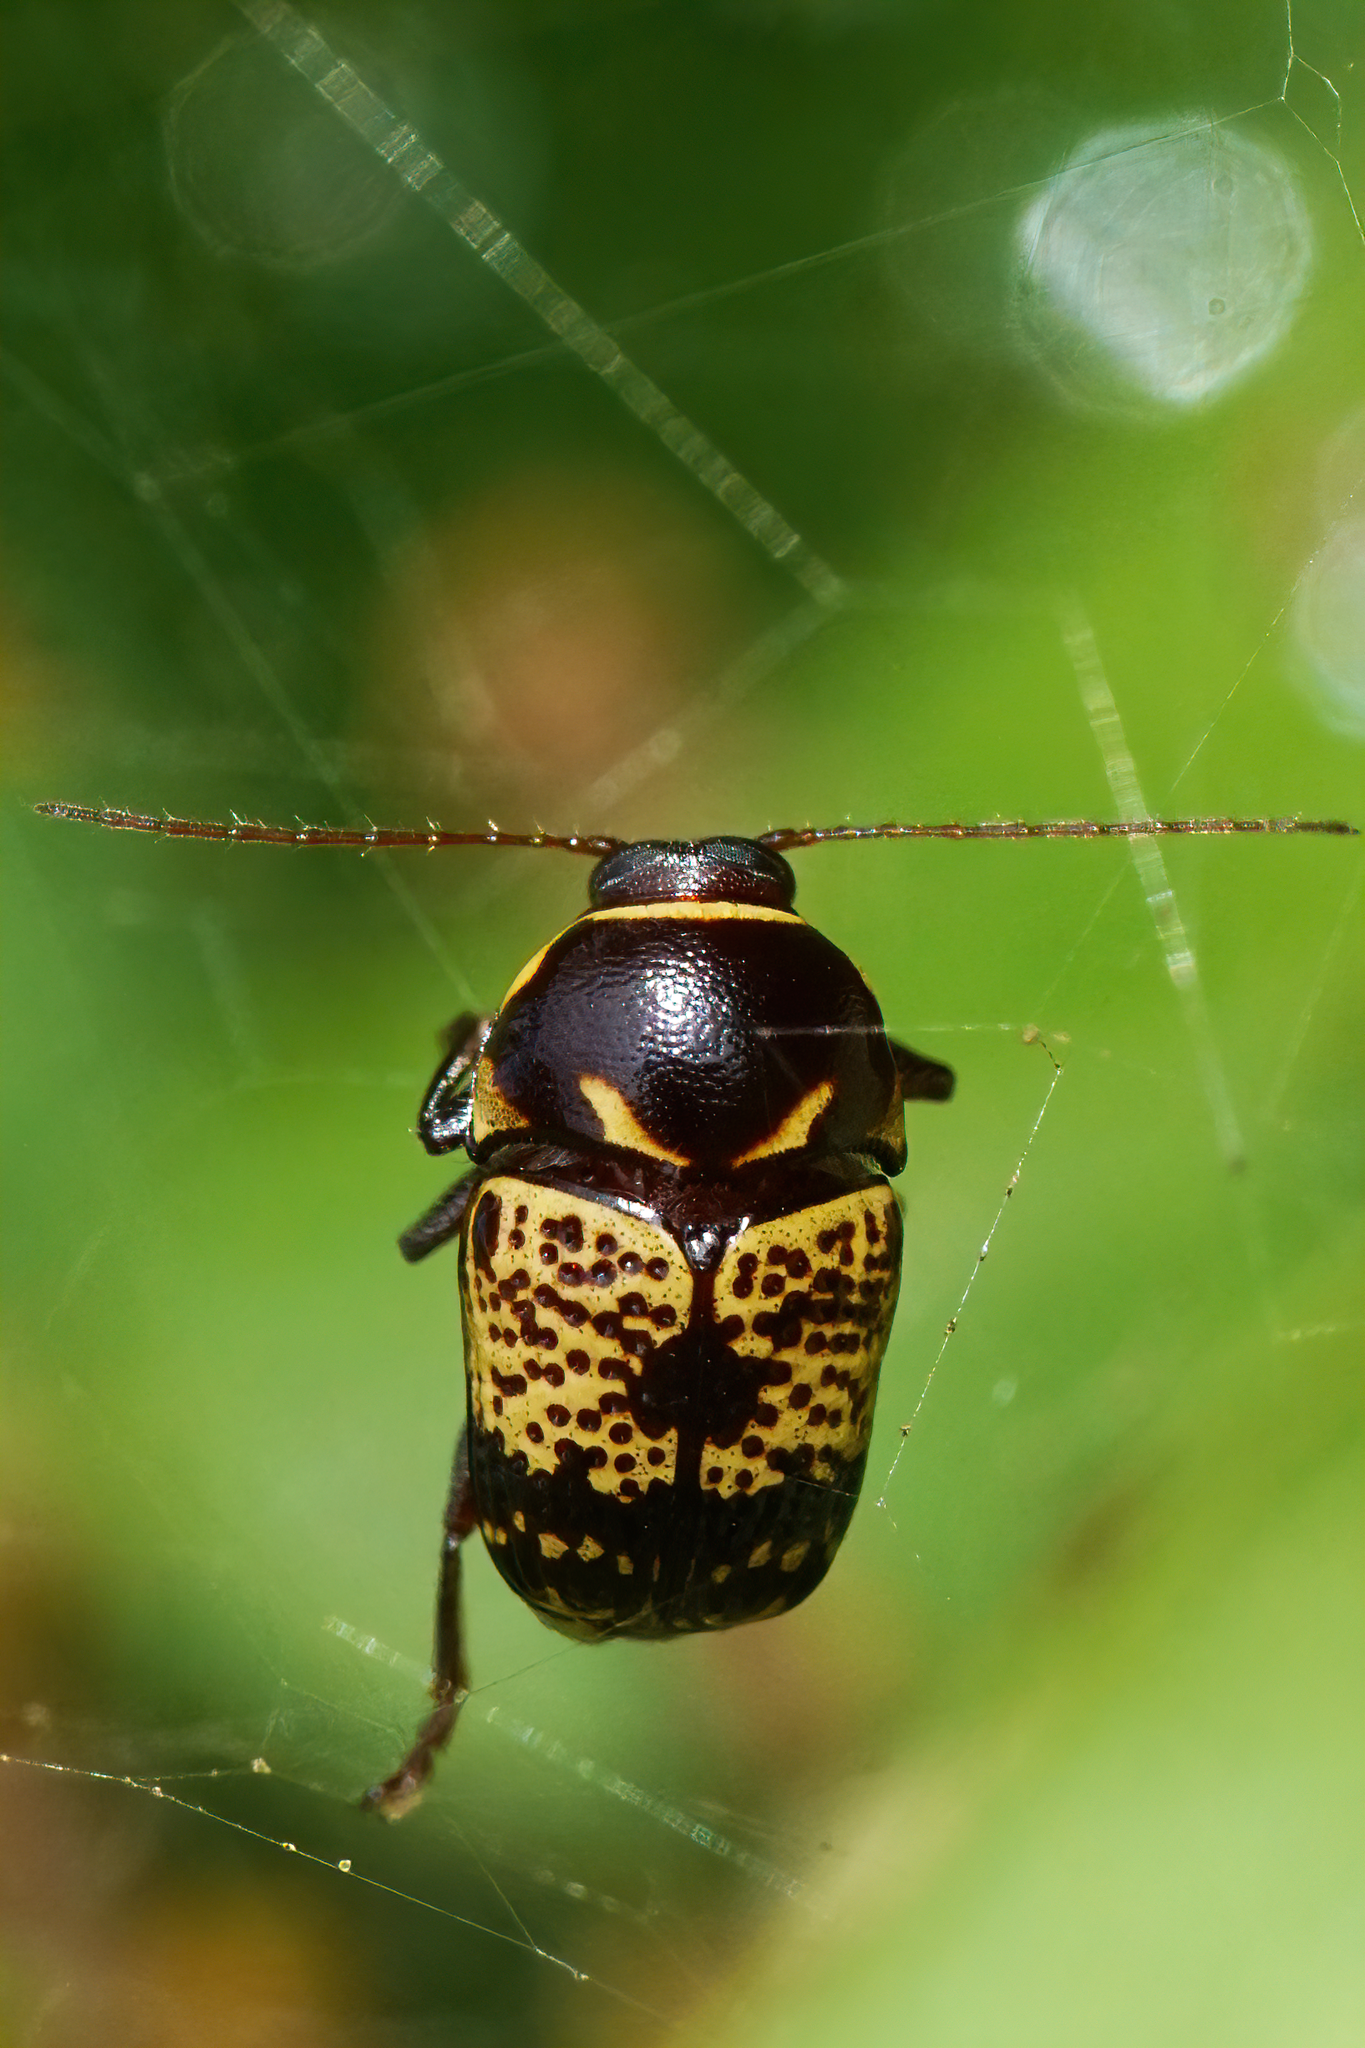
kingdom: Animalia
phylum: Arthropoda
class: Insecta
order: Coleoptera
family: Chrysomelidae
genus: Cryptocephalus
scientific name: Cryptocephalus irroratus
